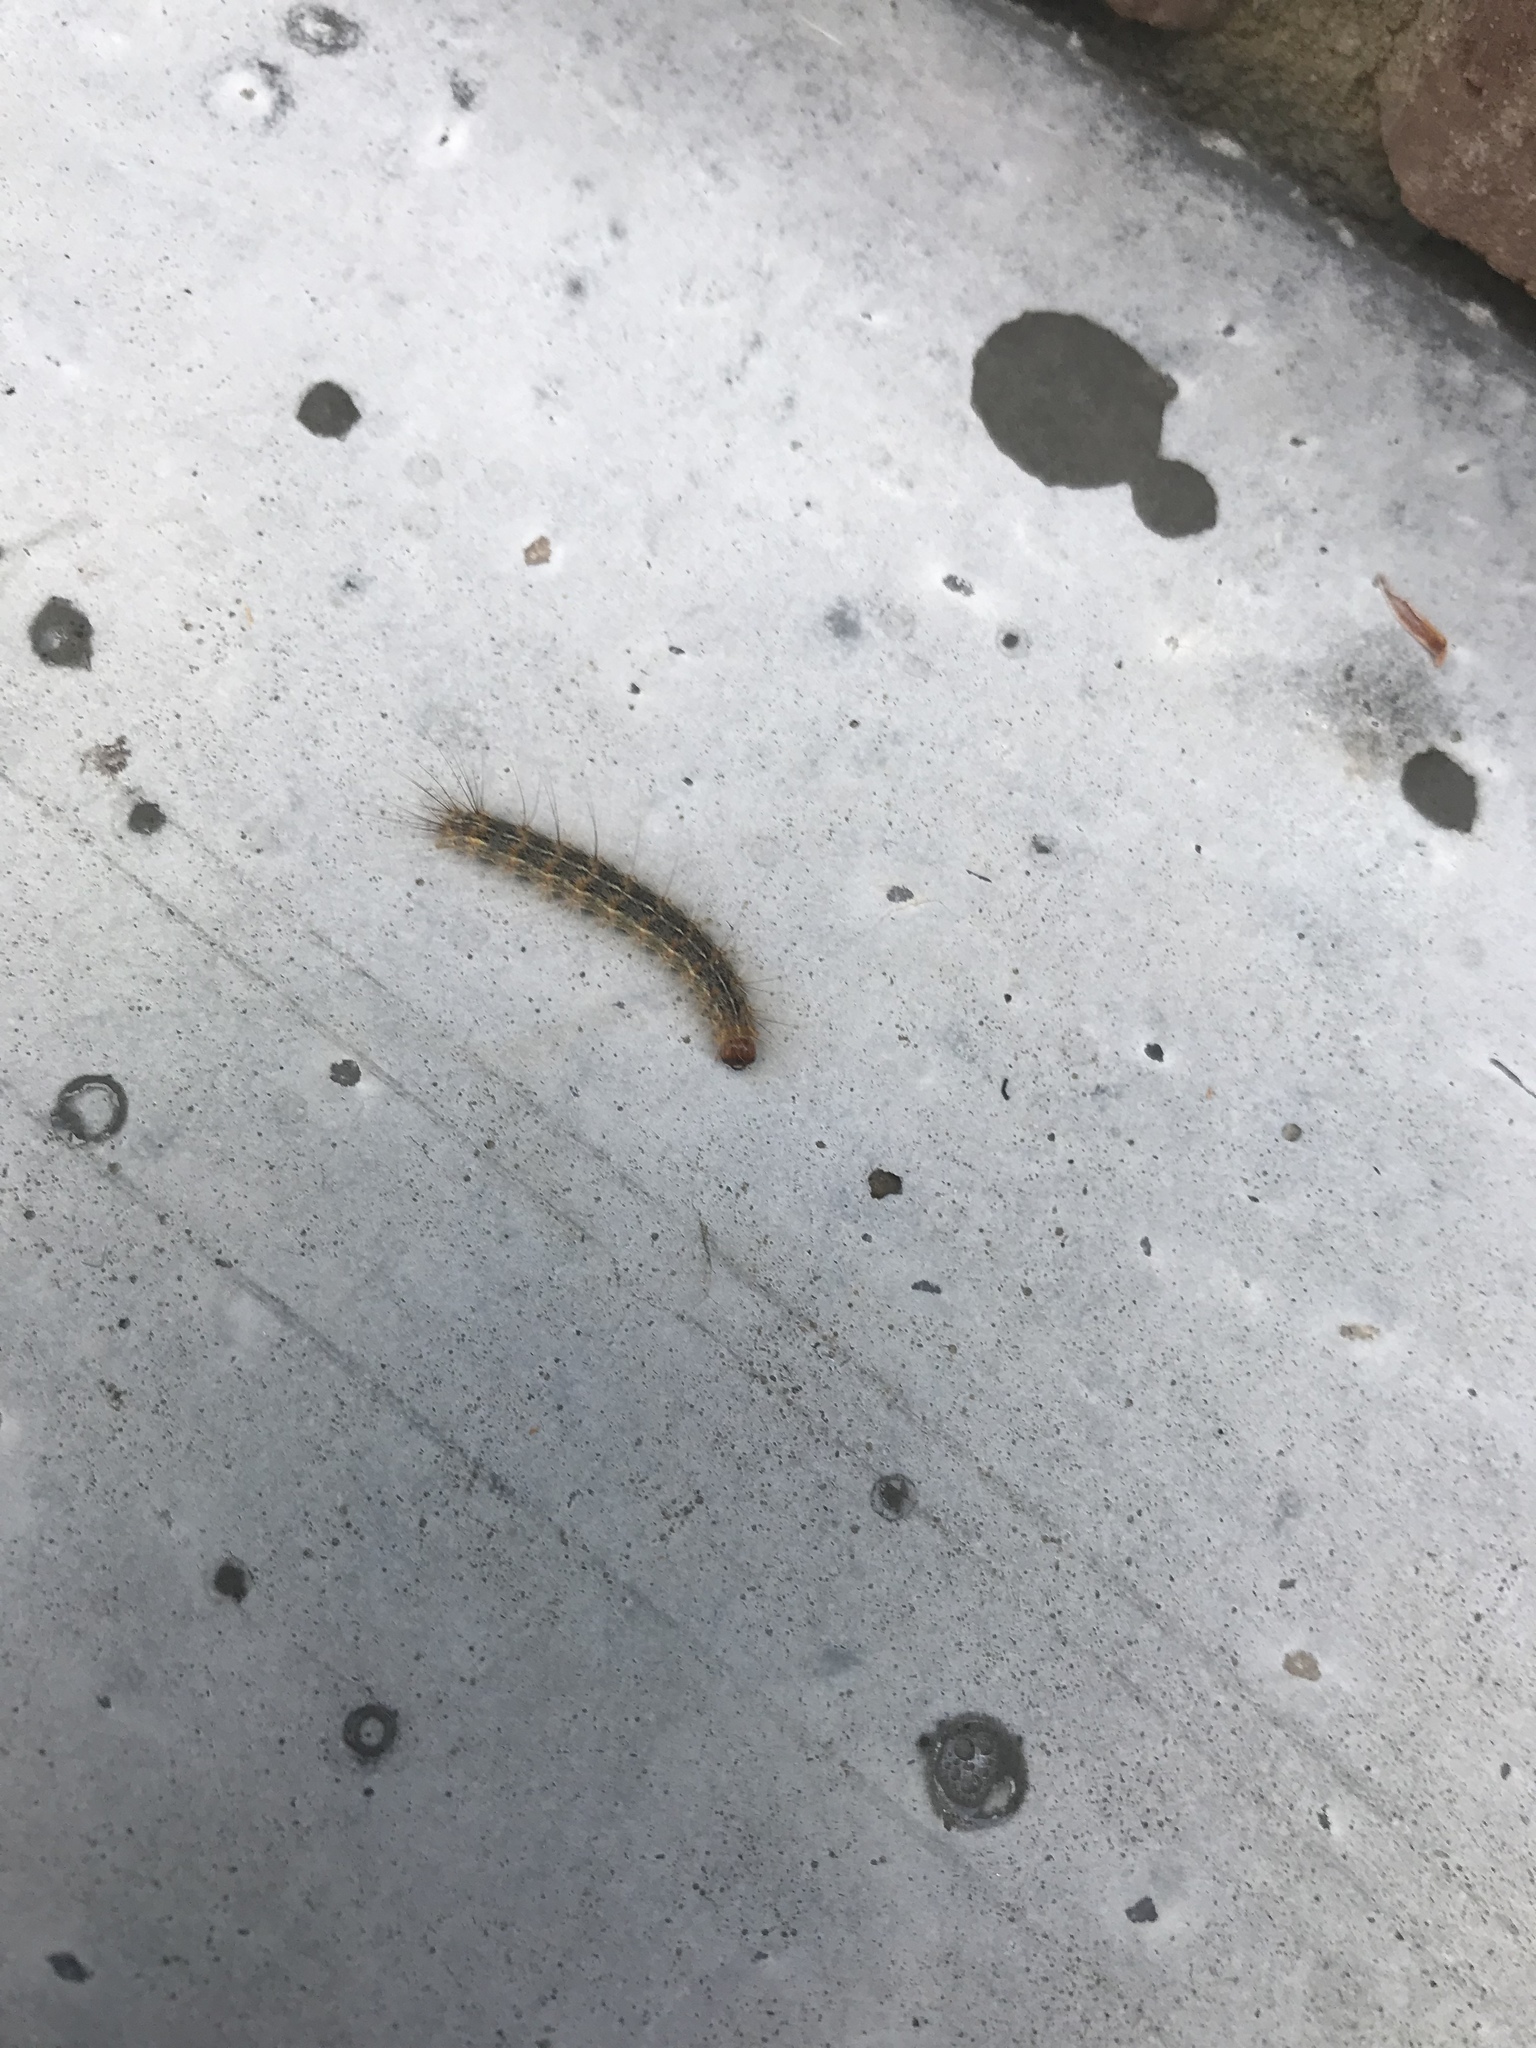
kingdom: Animalia
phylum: Arthropoda
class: Insecta
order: Lepidoptera
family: Erebidae
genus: Hyphantria
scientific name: Hyphantria cunea
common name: American white moth
